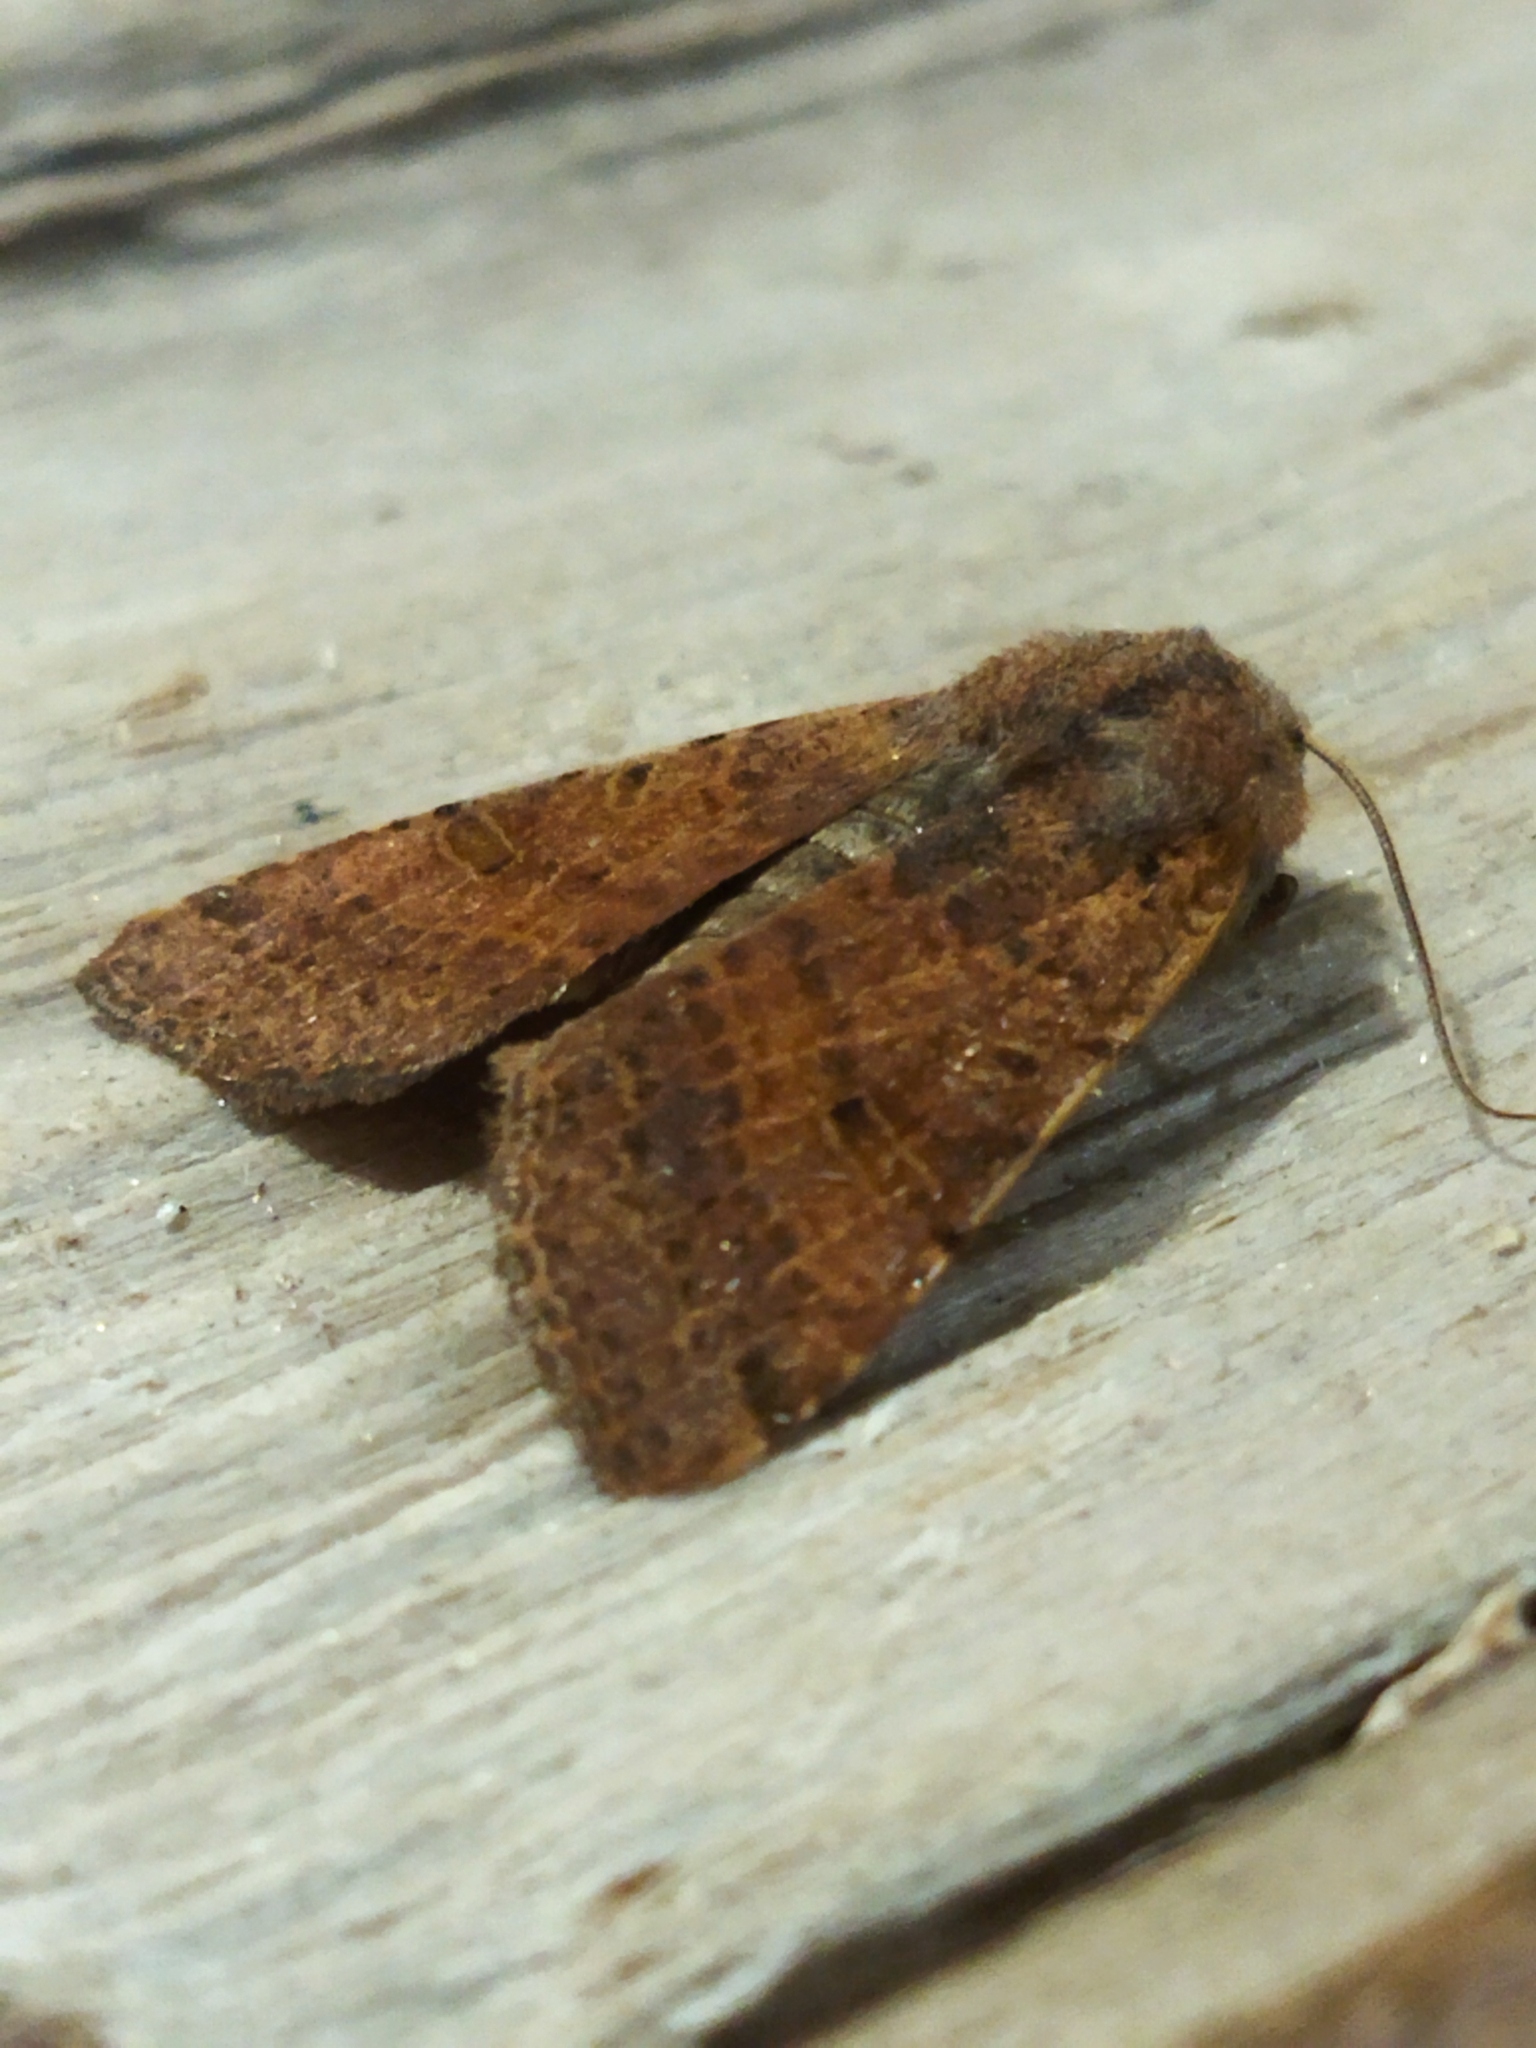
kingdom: Animalia
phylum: Arthropoda
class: Insecta
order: Lepidoptera
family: Noctuidae
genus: Agrochola
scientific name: Agrochola lychnidis
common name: Beaded chestnut
